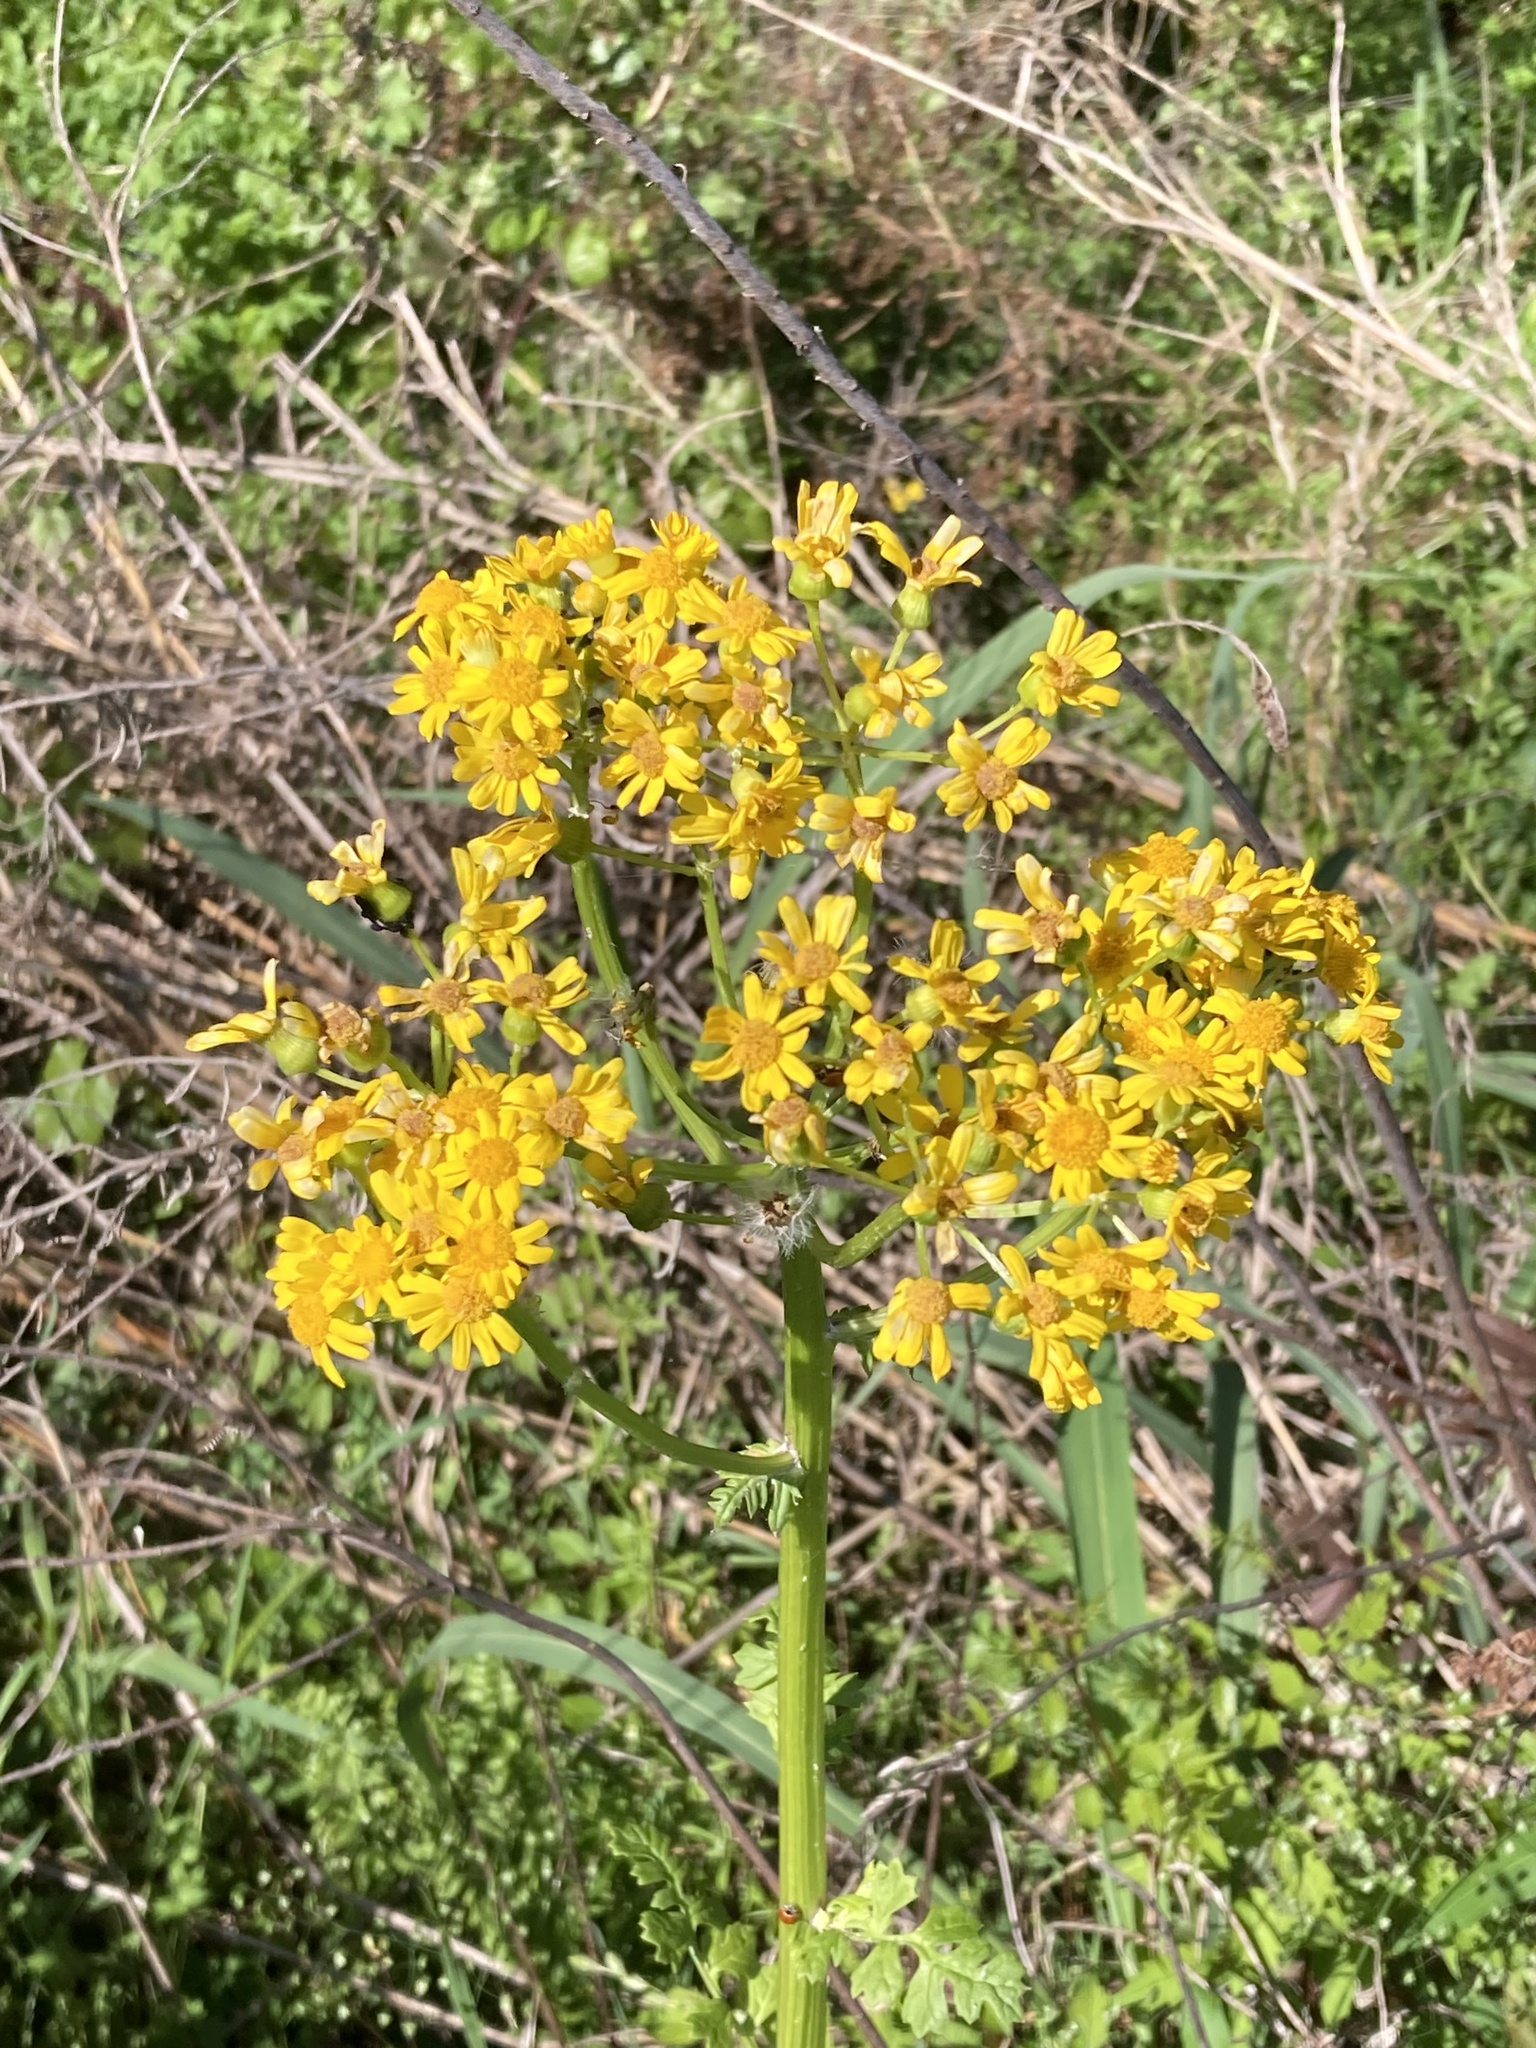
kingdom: Plantae
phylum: Tracheophyta
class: Magnoliopsida
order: Asterales
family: Asteraceae
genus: Packera
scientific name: Packera glabella
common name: Butterweed
